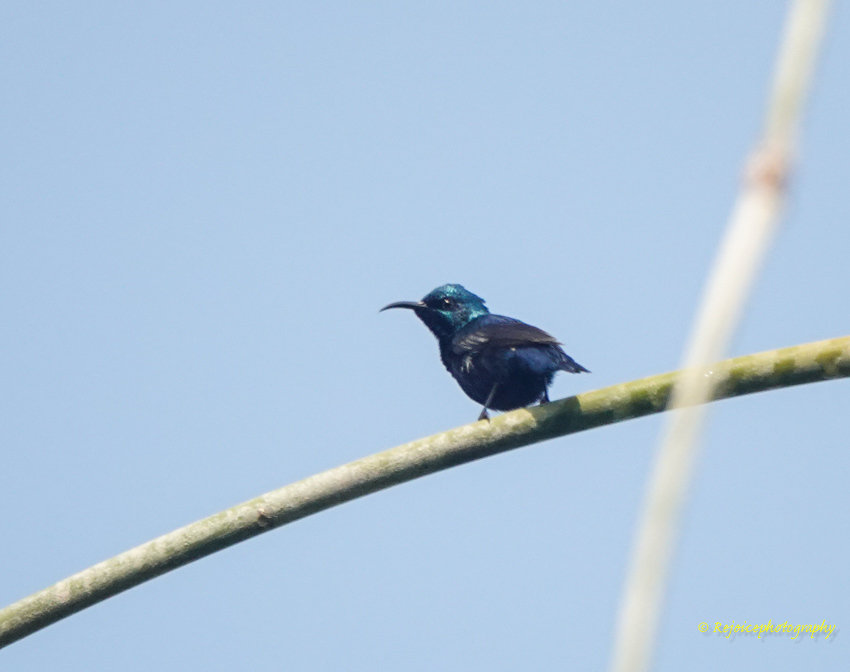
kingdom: Animalia
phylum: Chordata
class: Aves
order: Passeriformes
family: Nectariniidae
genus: Cinnyris
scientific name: Cinnyris asiaticus
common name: Purple sunbird
